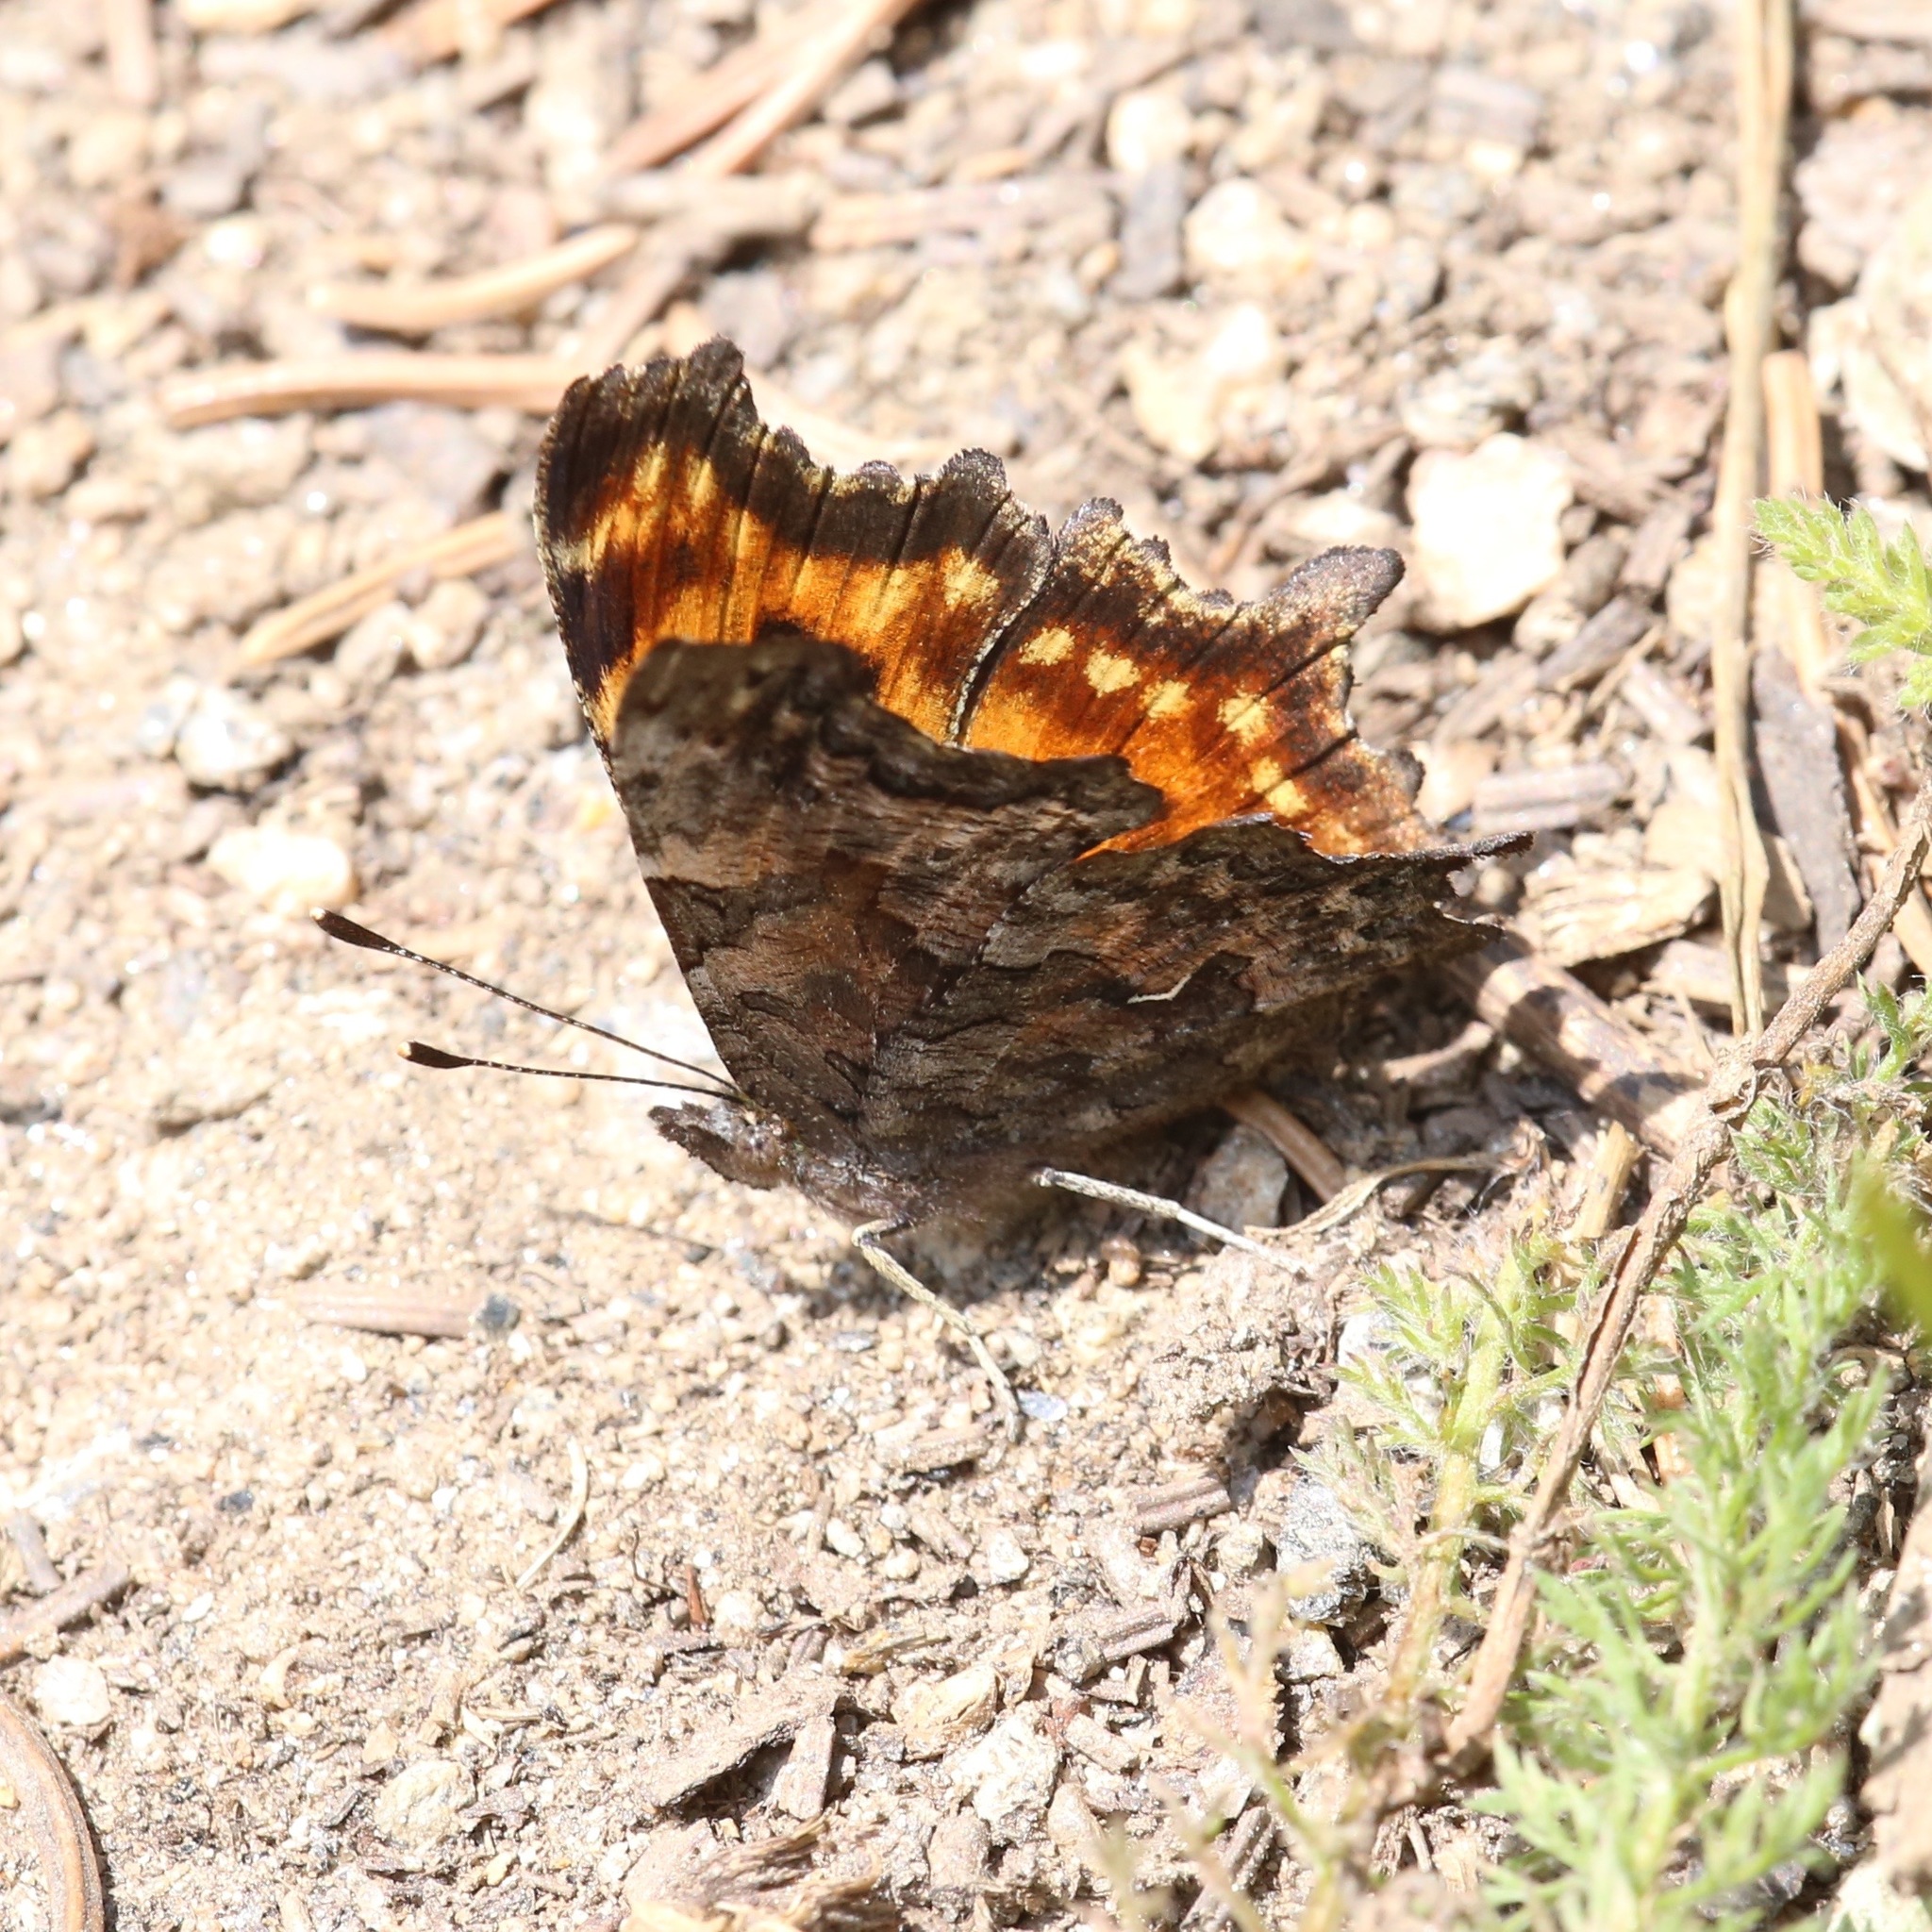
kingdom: Animalia
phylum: Arthropoda
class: Insecta
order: Lepidoptera
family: Nymphalidae
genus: Polygonia
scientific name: Polygonia gracilis
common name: Hoary comma
